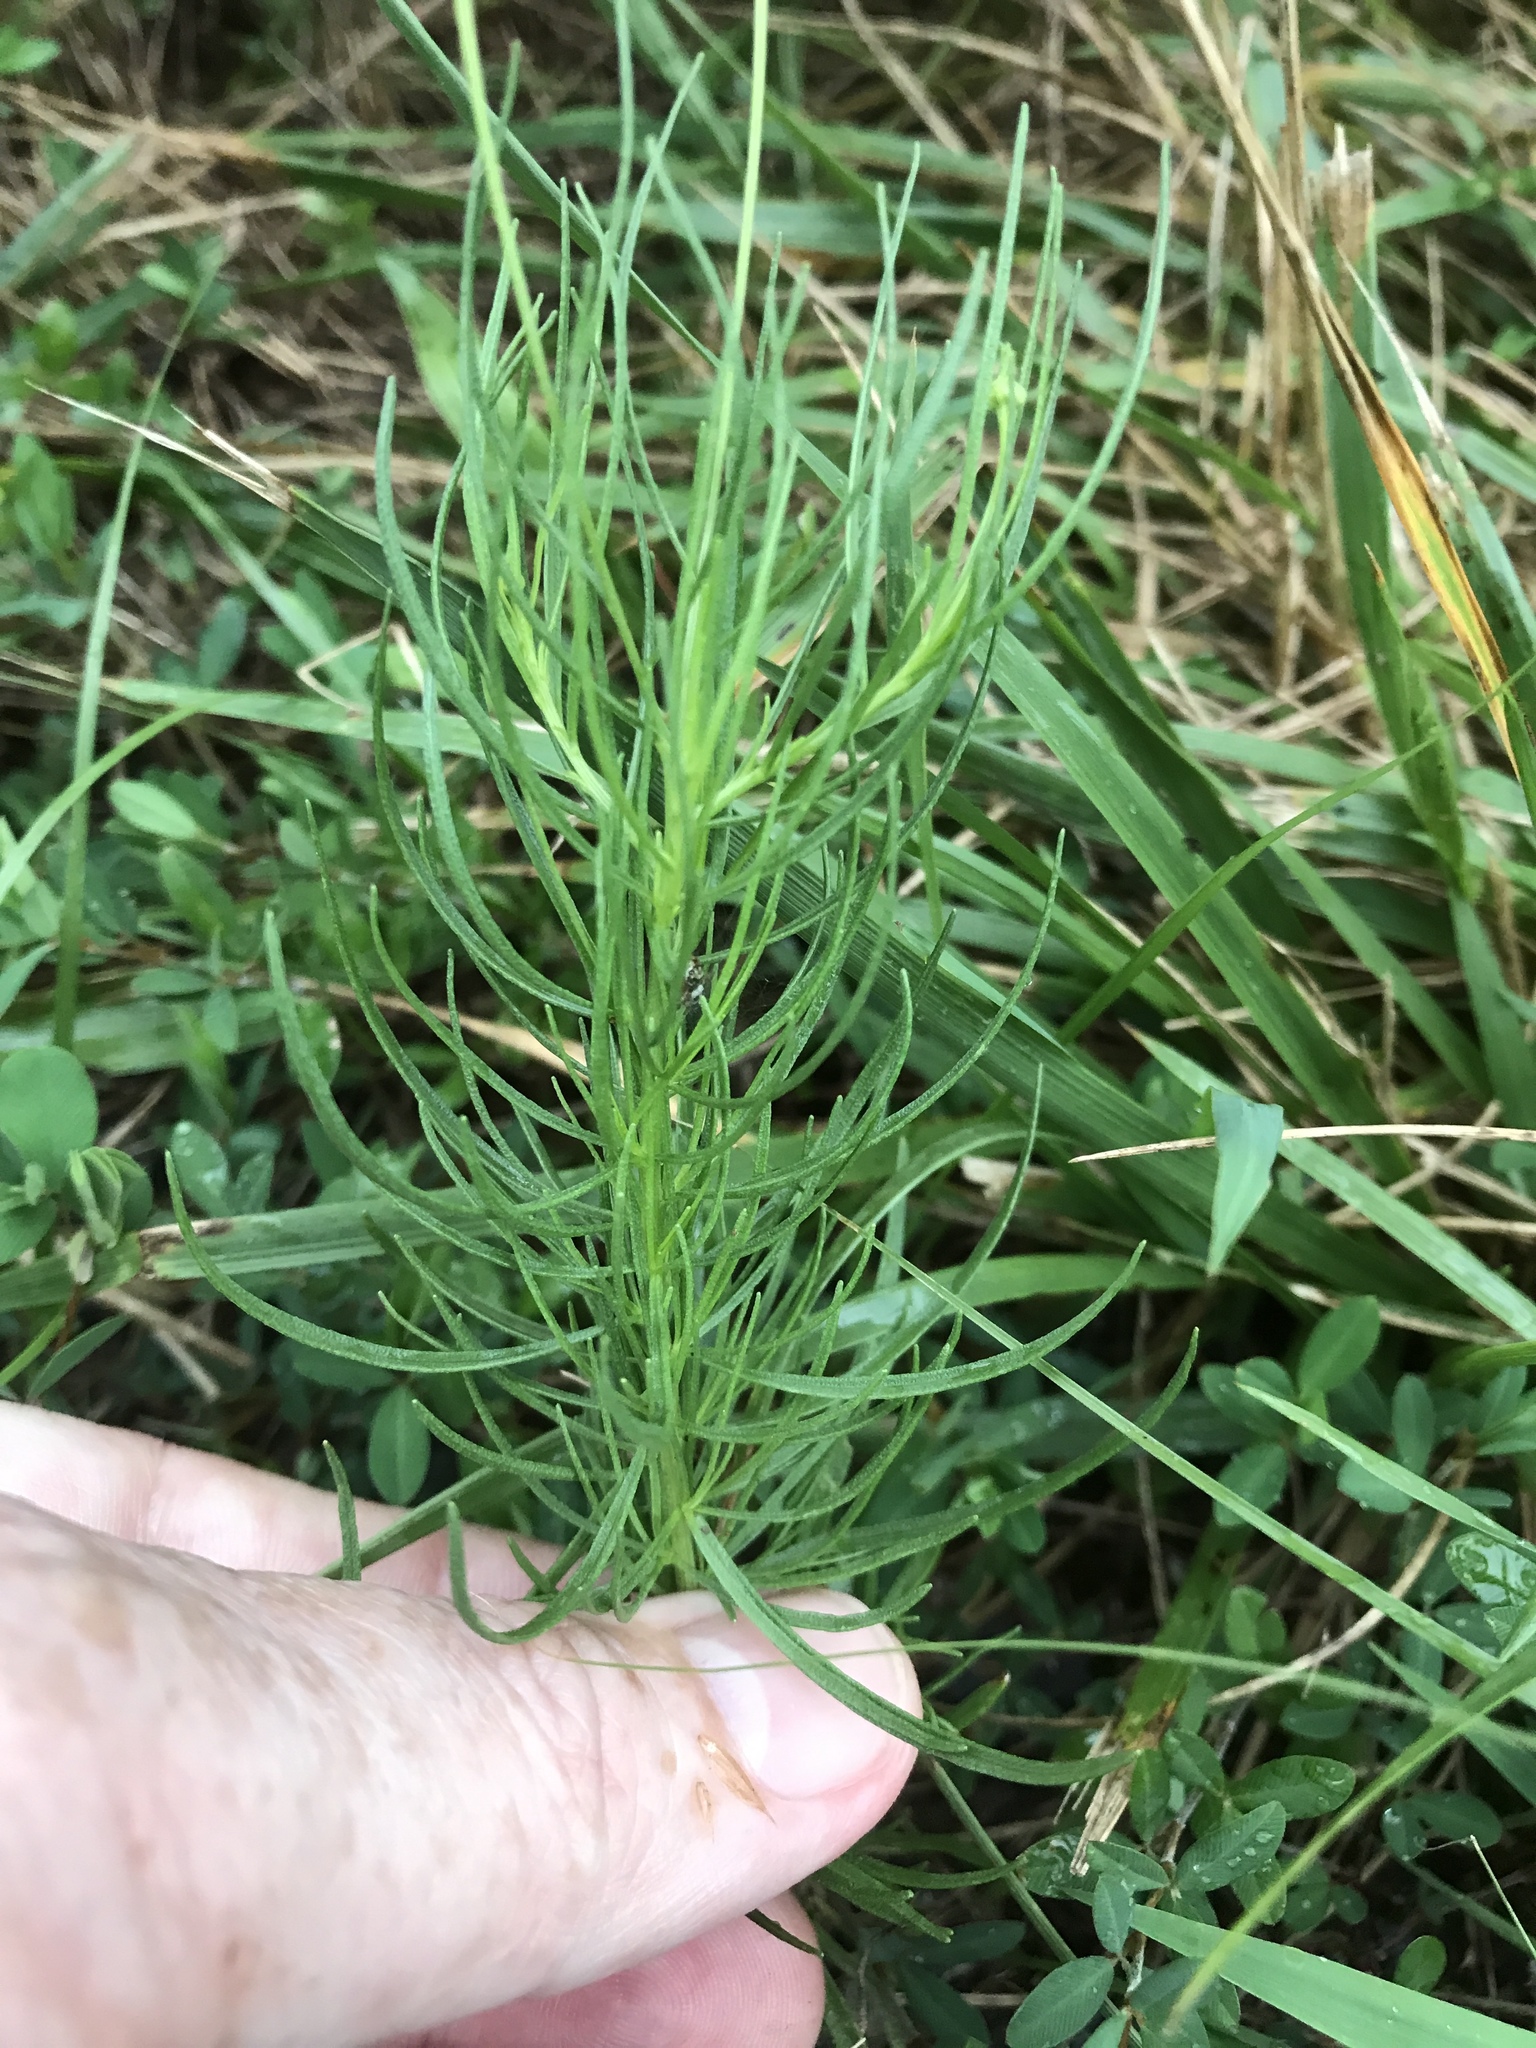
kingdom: Plantae
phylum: Tracheophyta
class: Magnoliopsida
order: Asterales
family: Asteraceae
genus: Helenium
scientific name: Helenium amarum
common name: Bitter sneezeweed
